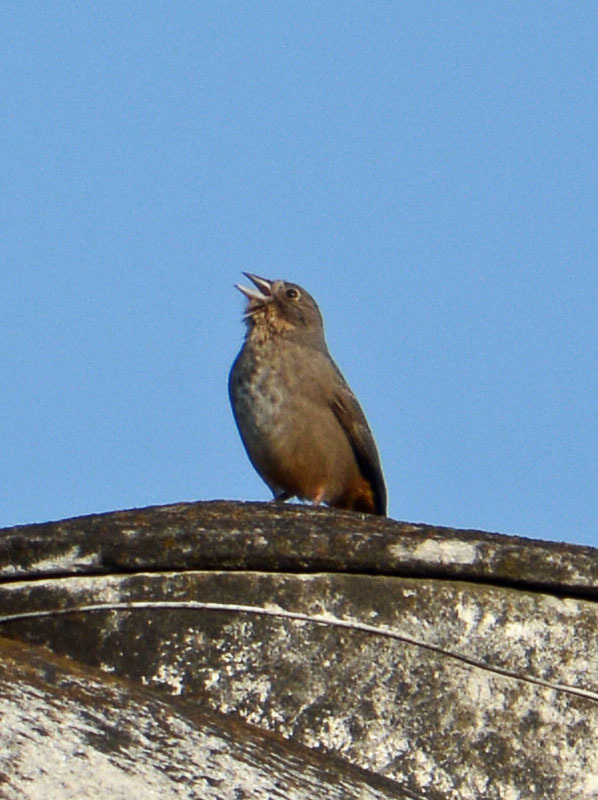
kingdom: Animalia
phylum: Chordata
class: Aves
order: Passeriformes
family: Passerellidae
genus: Melozone
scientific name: Melozone fusca
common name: Canyon towhee
